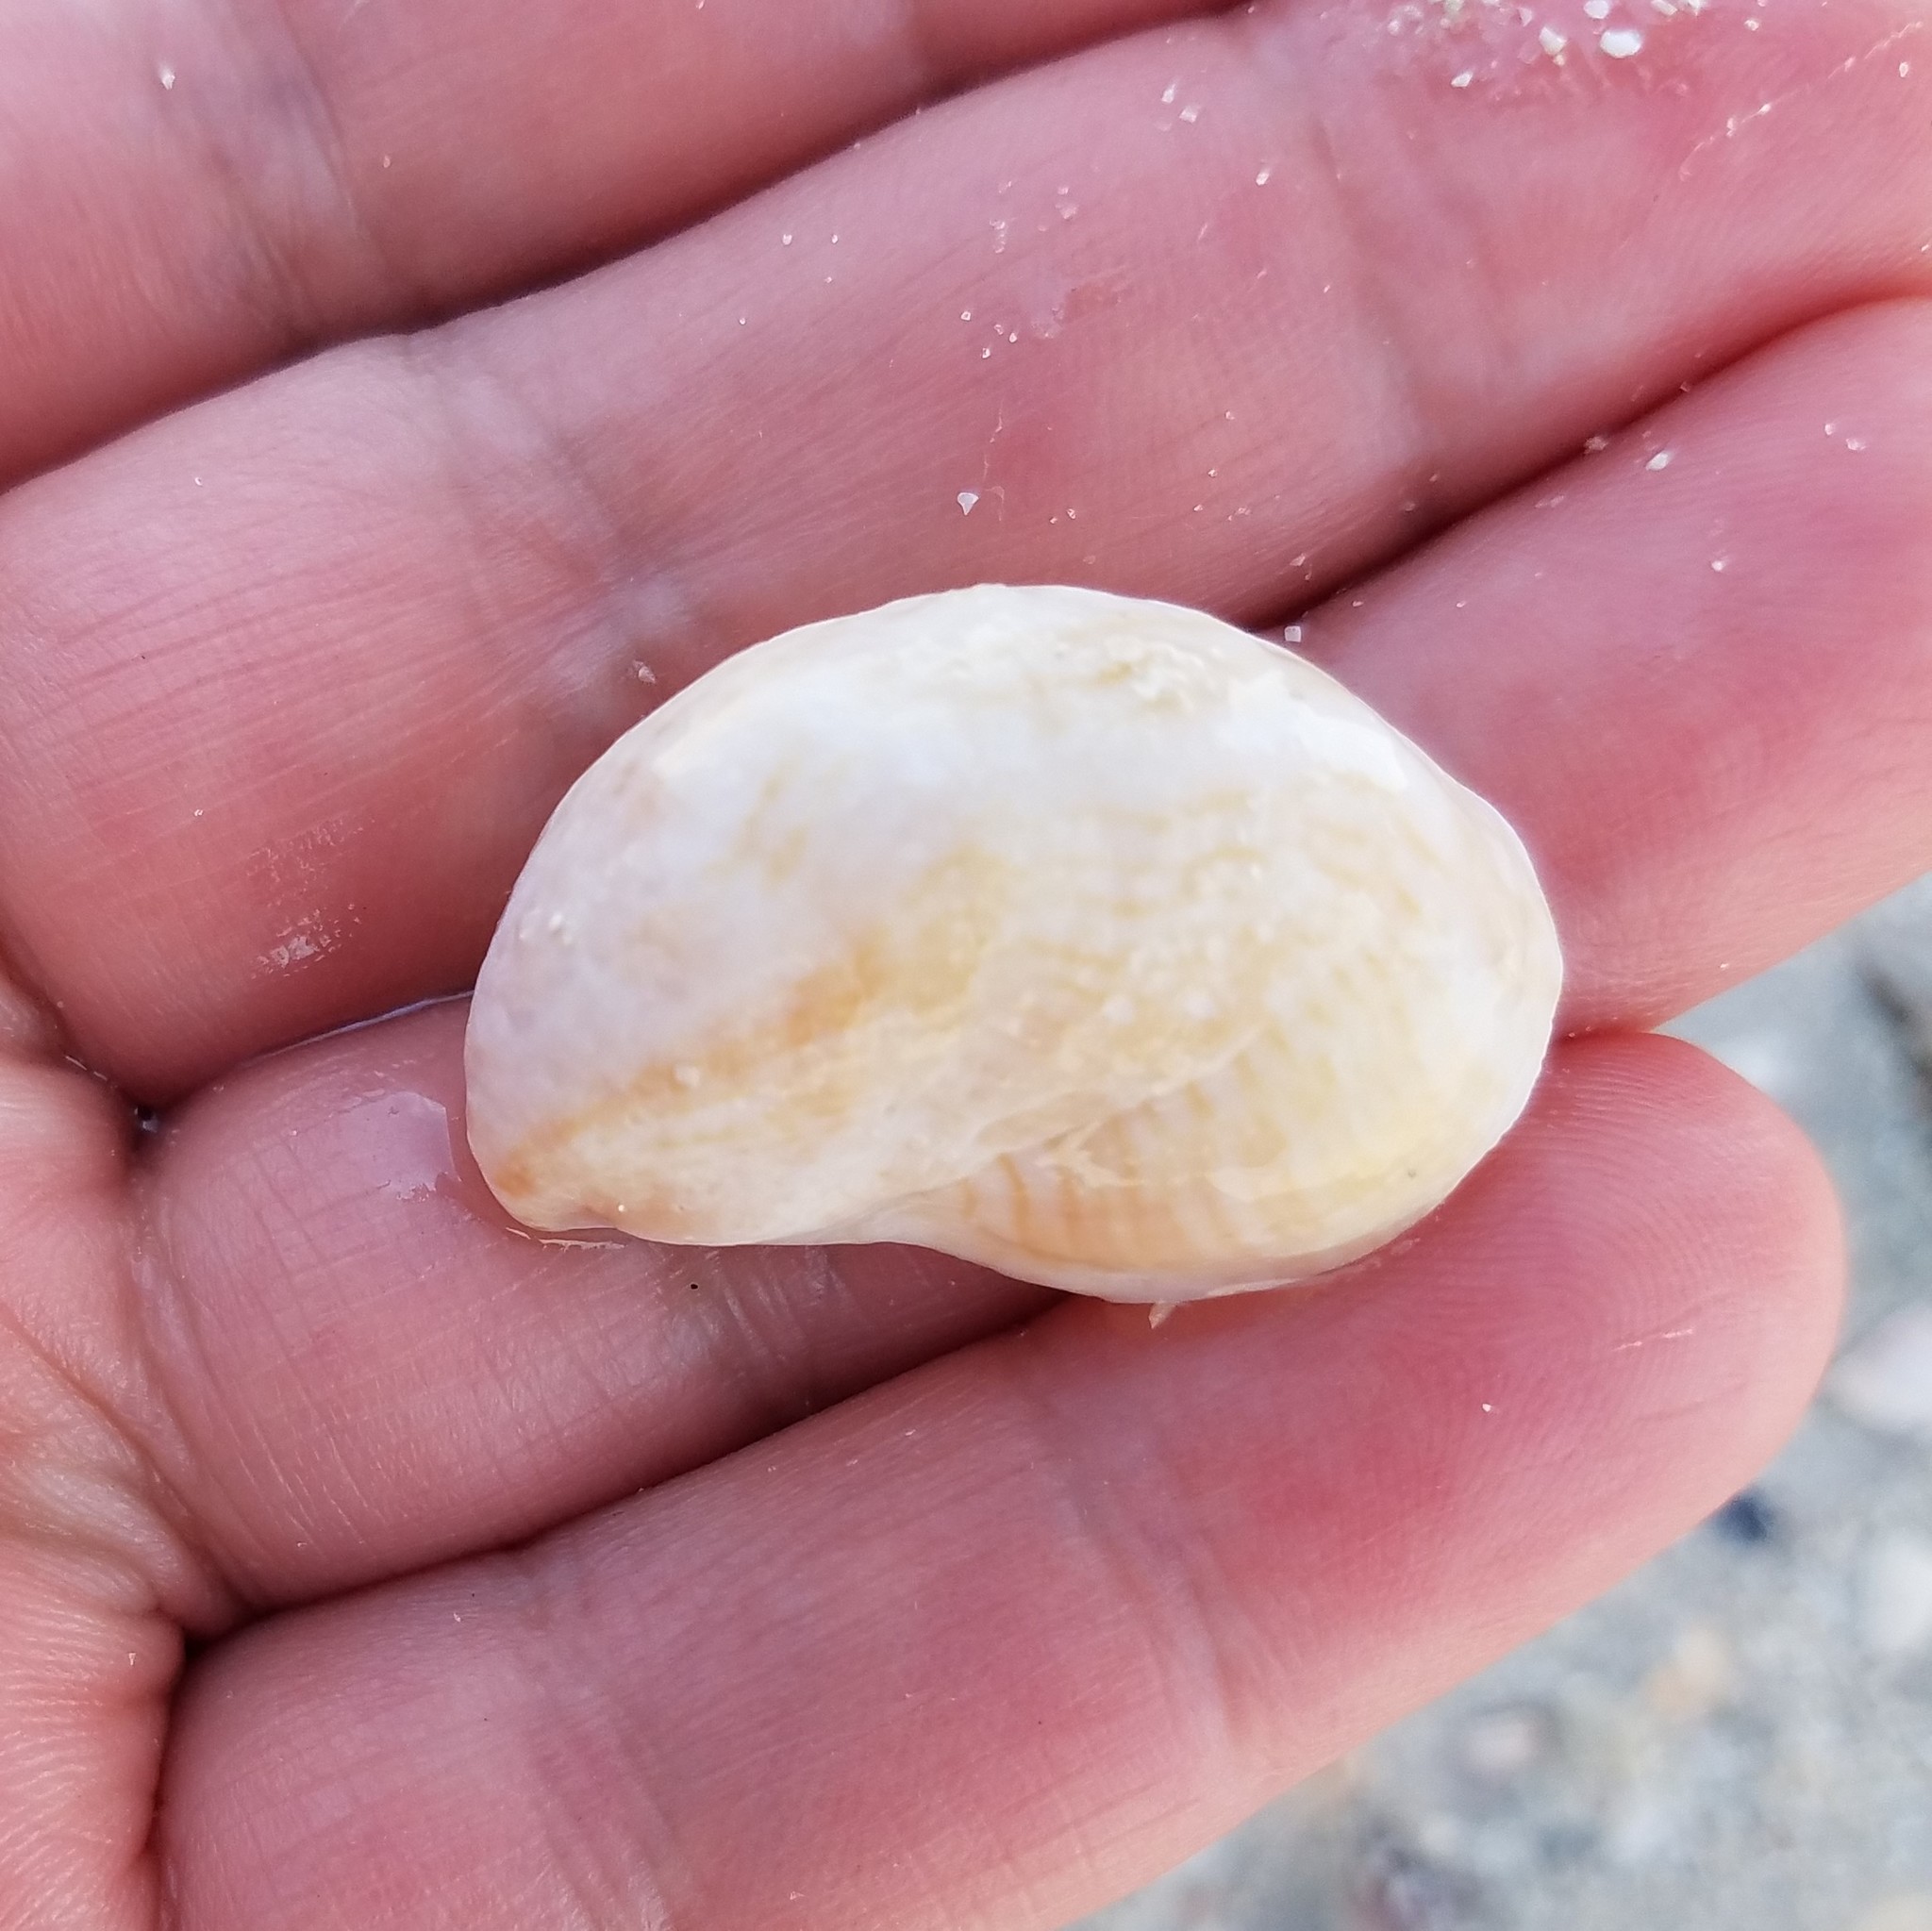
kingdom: Animalia
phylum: Mollusca
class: Gastropoda
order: Littorinimorpha
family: Calyptraeidae
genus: Crepidula
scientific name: Crepidula fornicata
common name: Slipper limpet
